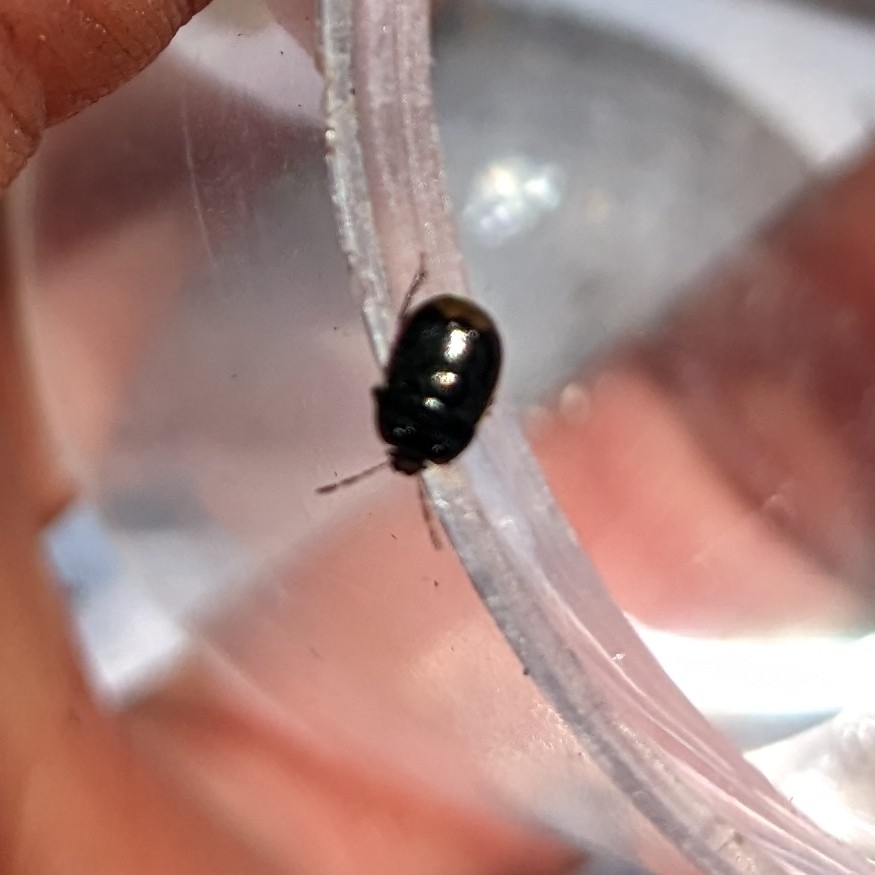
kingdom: Animalia
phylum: Arthropoda
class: Insecta
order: Hemiptera
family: Cydnidae
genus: Legnotus
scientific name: Legnotus limbosus
